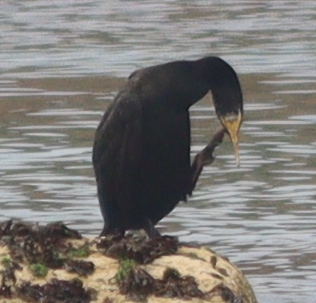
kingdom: Animalia
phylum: Chordata
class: Aves
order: Suliformes
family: Phalacrocoracidae
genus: Phalacrocorax
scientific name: Phalacrocorax carbo
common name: Great cormorant
